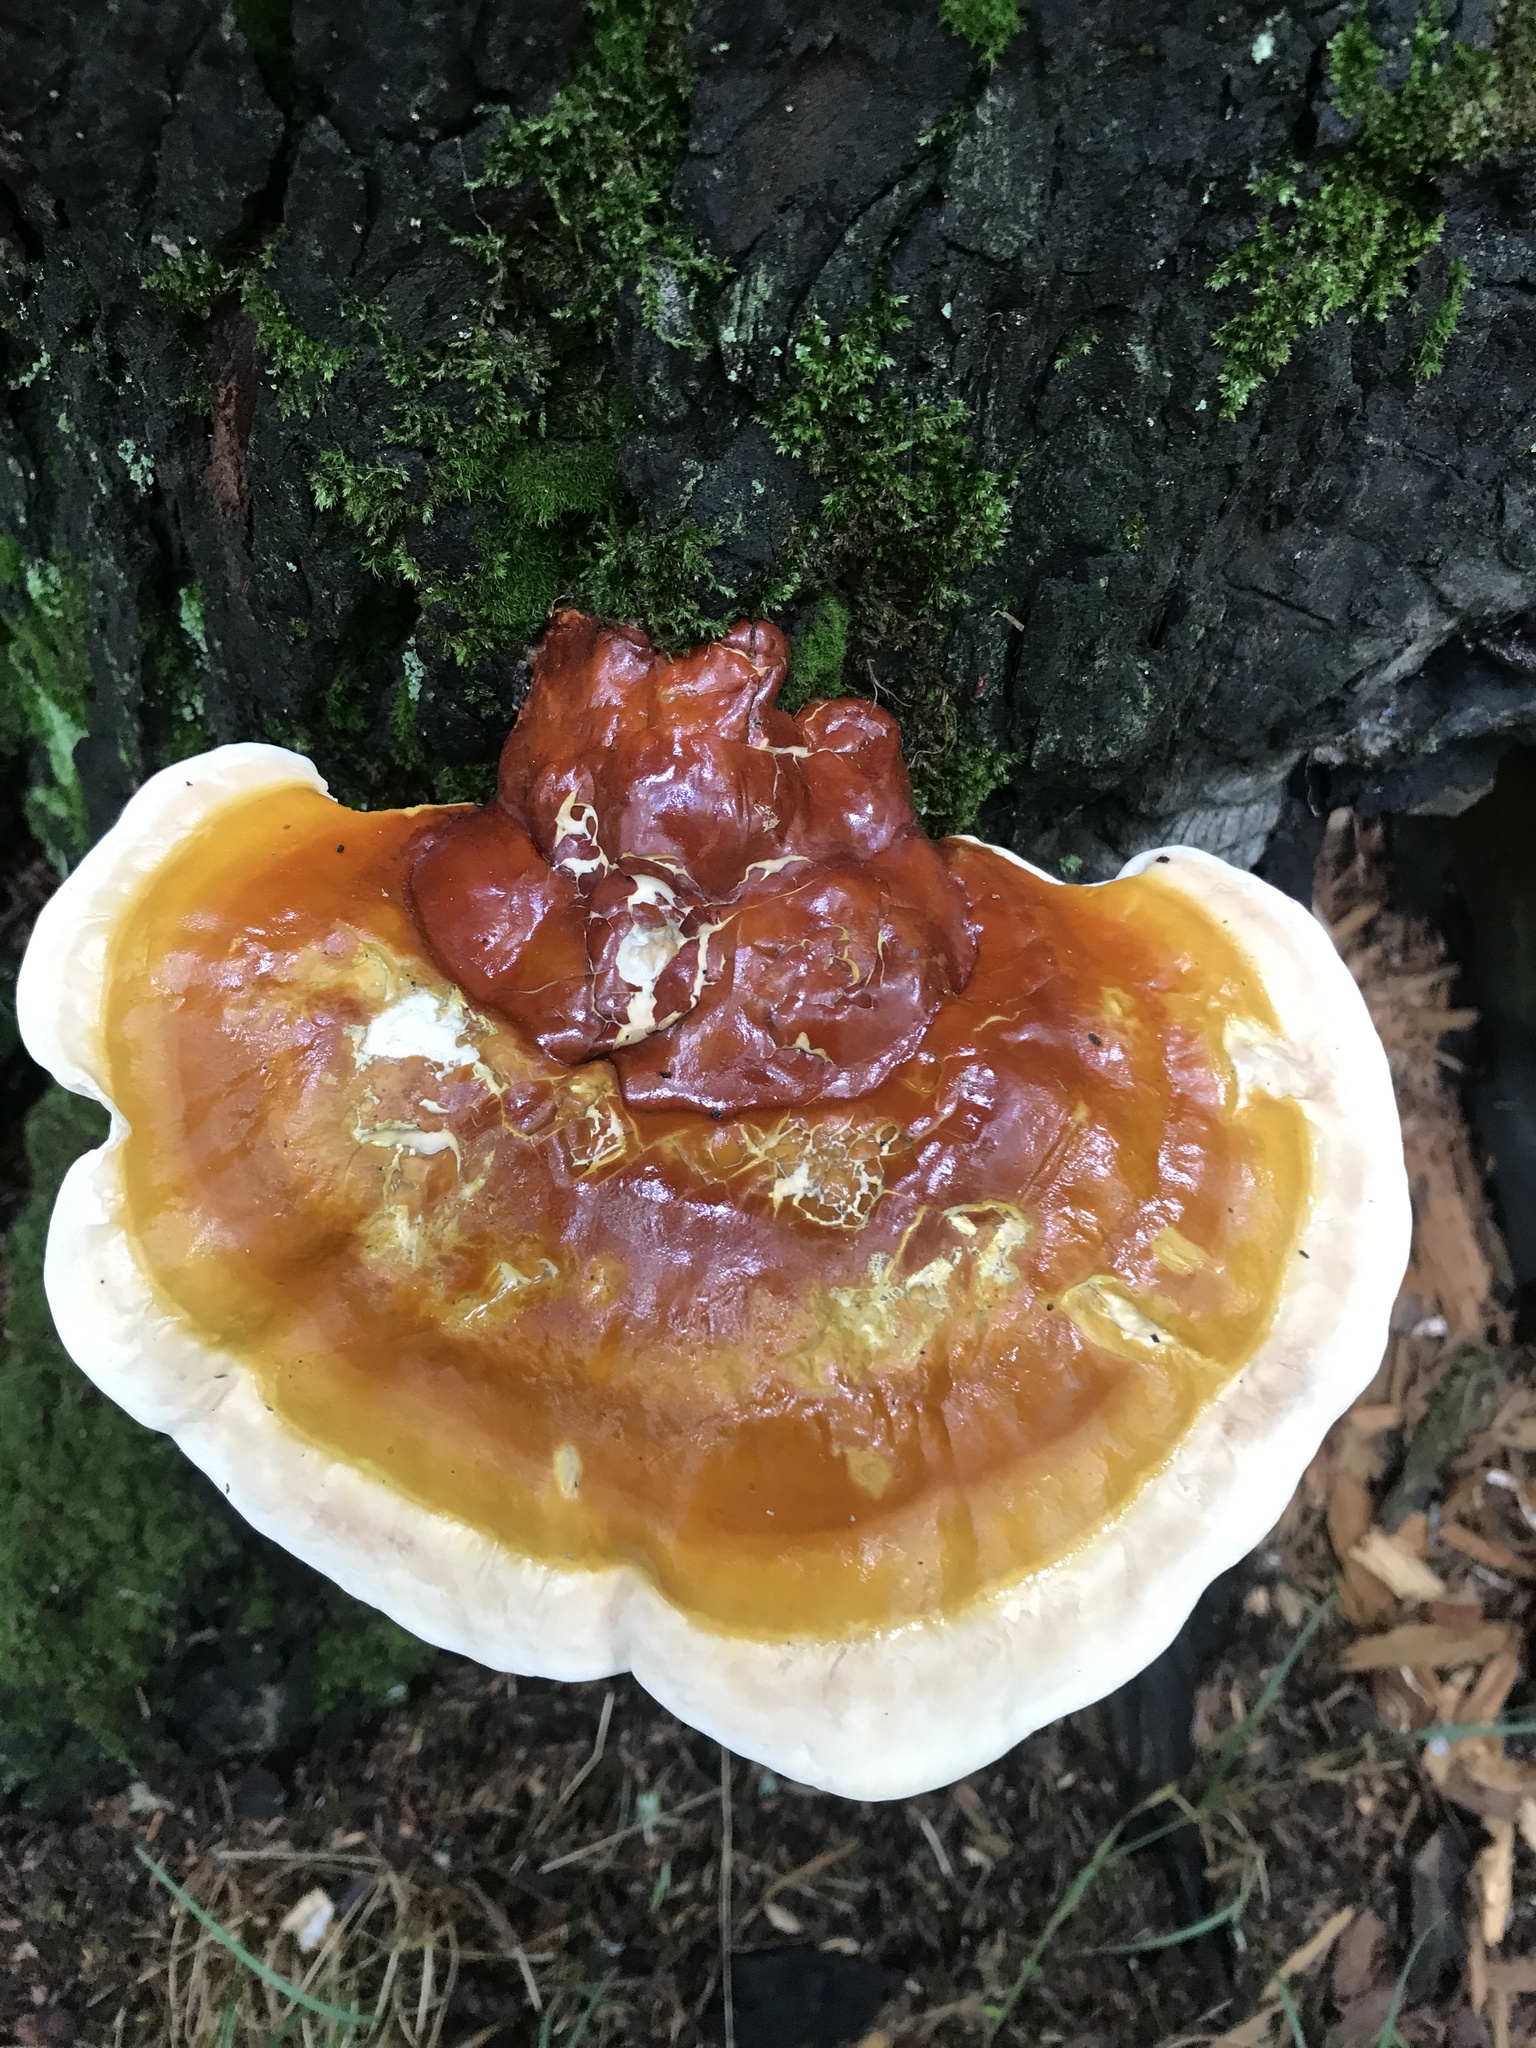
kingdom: Fungi
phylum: Basidiomycota
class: Agaricomycetes
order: Polyporales
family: Polyporaceae
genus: Ganoderma
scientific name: Ganoderma tsugae
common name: Hemlock varnish shelf
